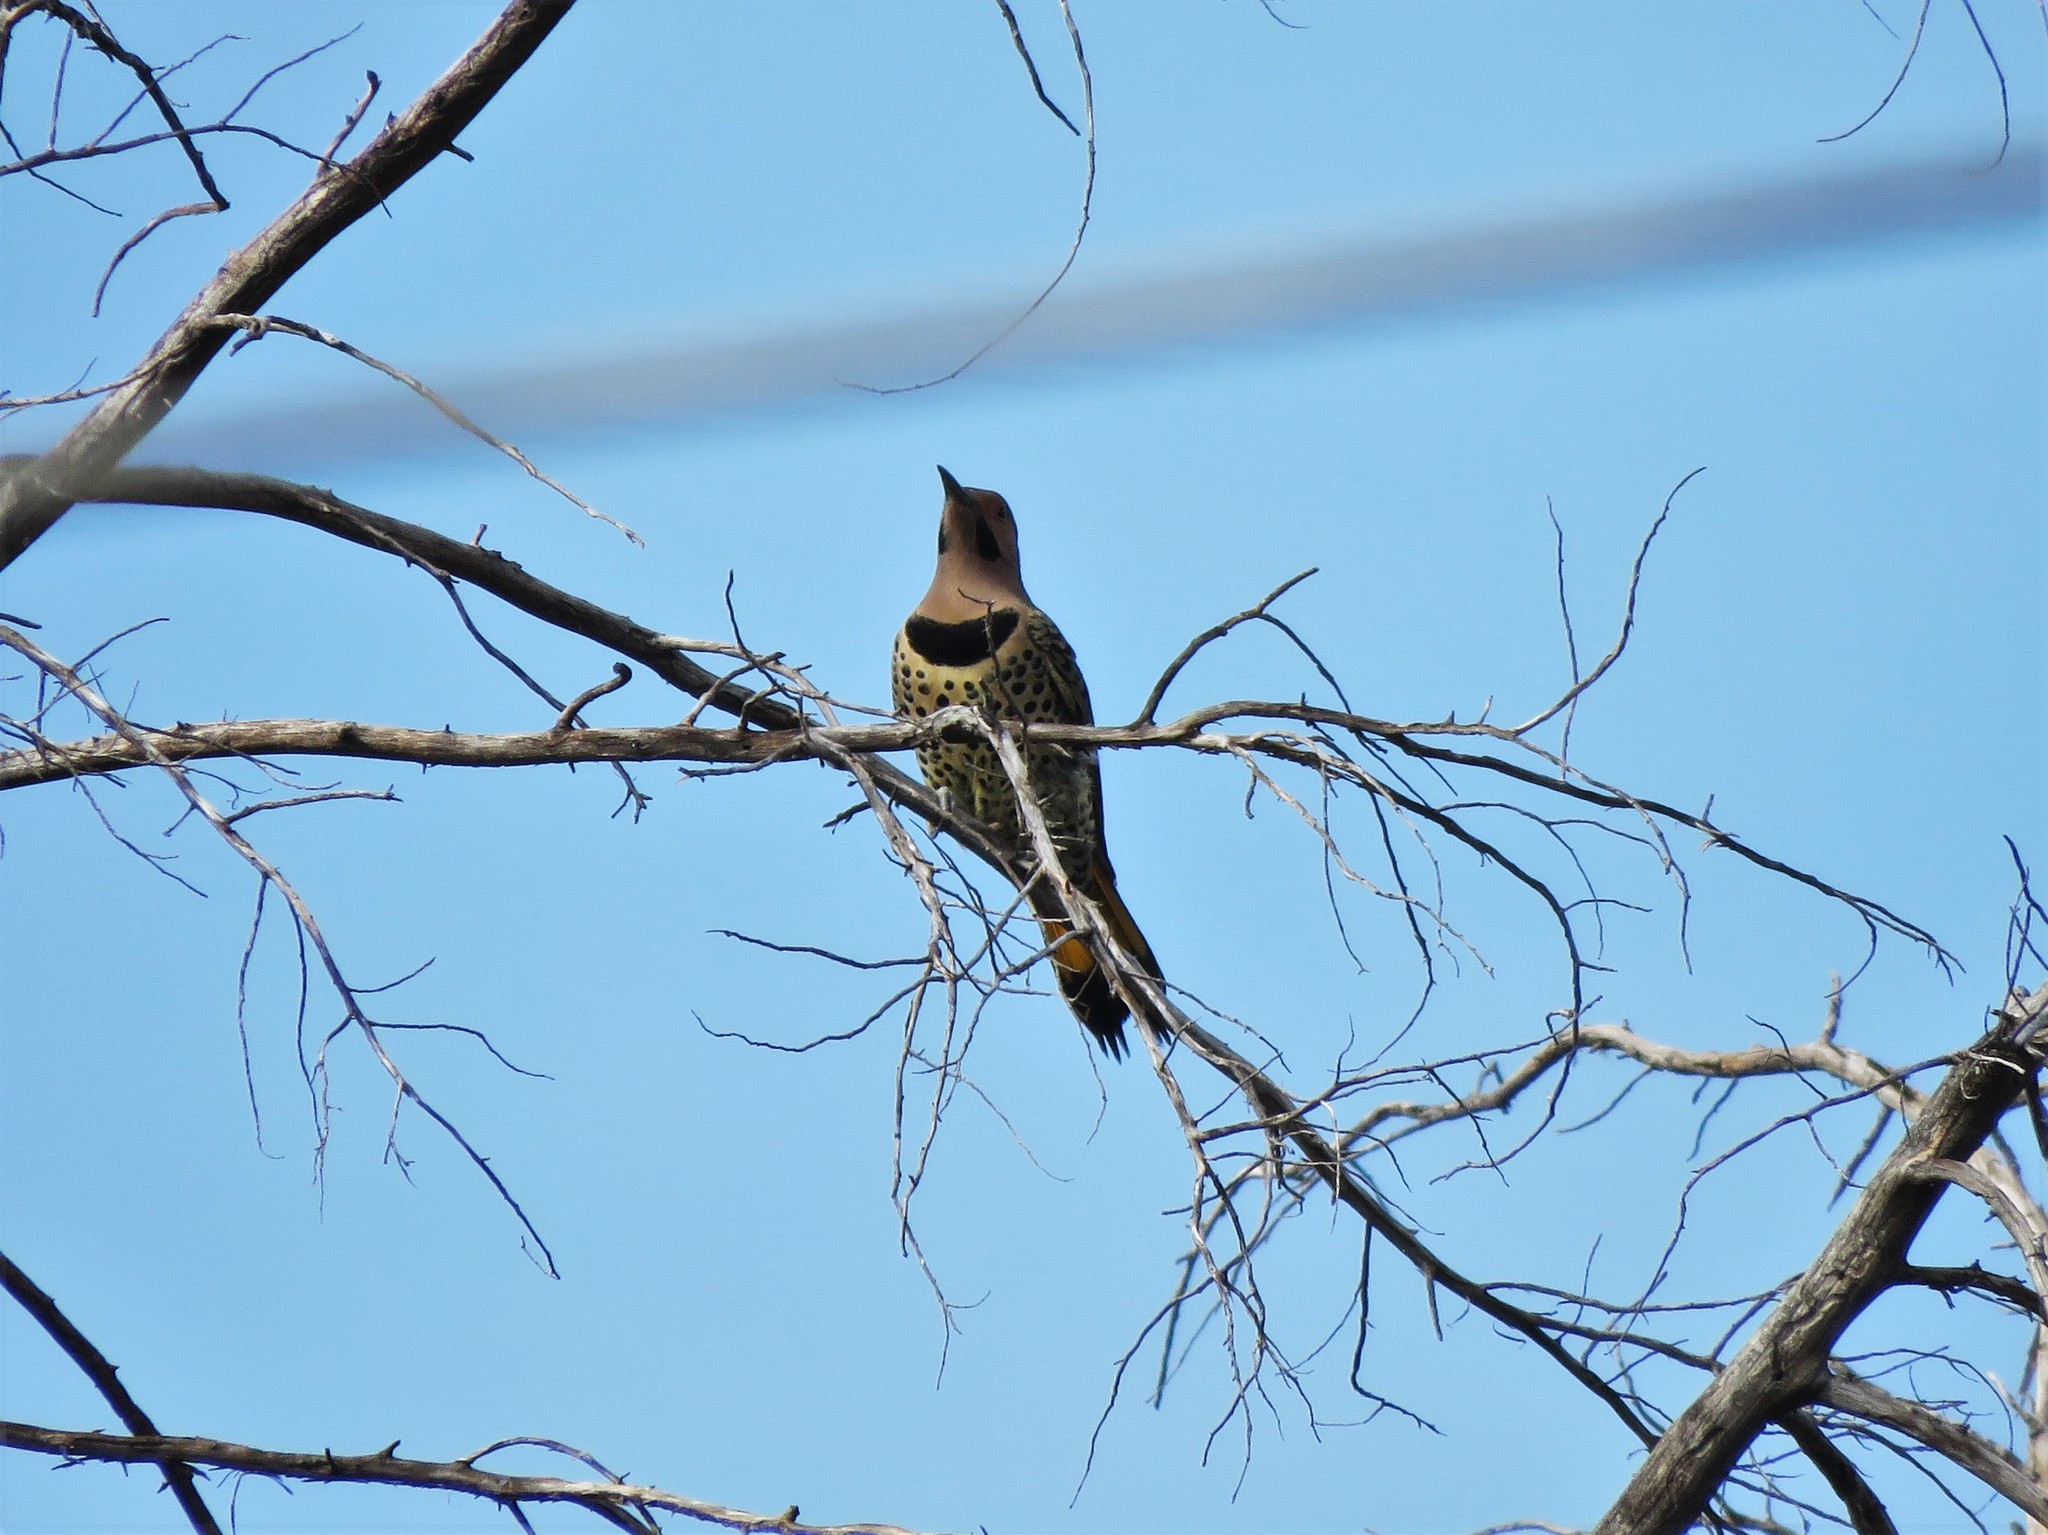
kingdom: Animalia
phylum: Chordata
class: Aves
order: Piciformes
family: Picidae
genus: Colaptes
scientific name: Colaptes auratus
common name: Northern flicker
